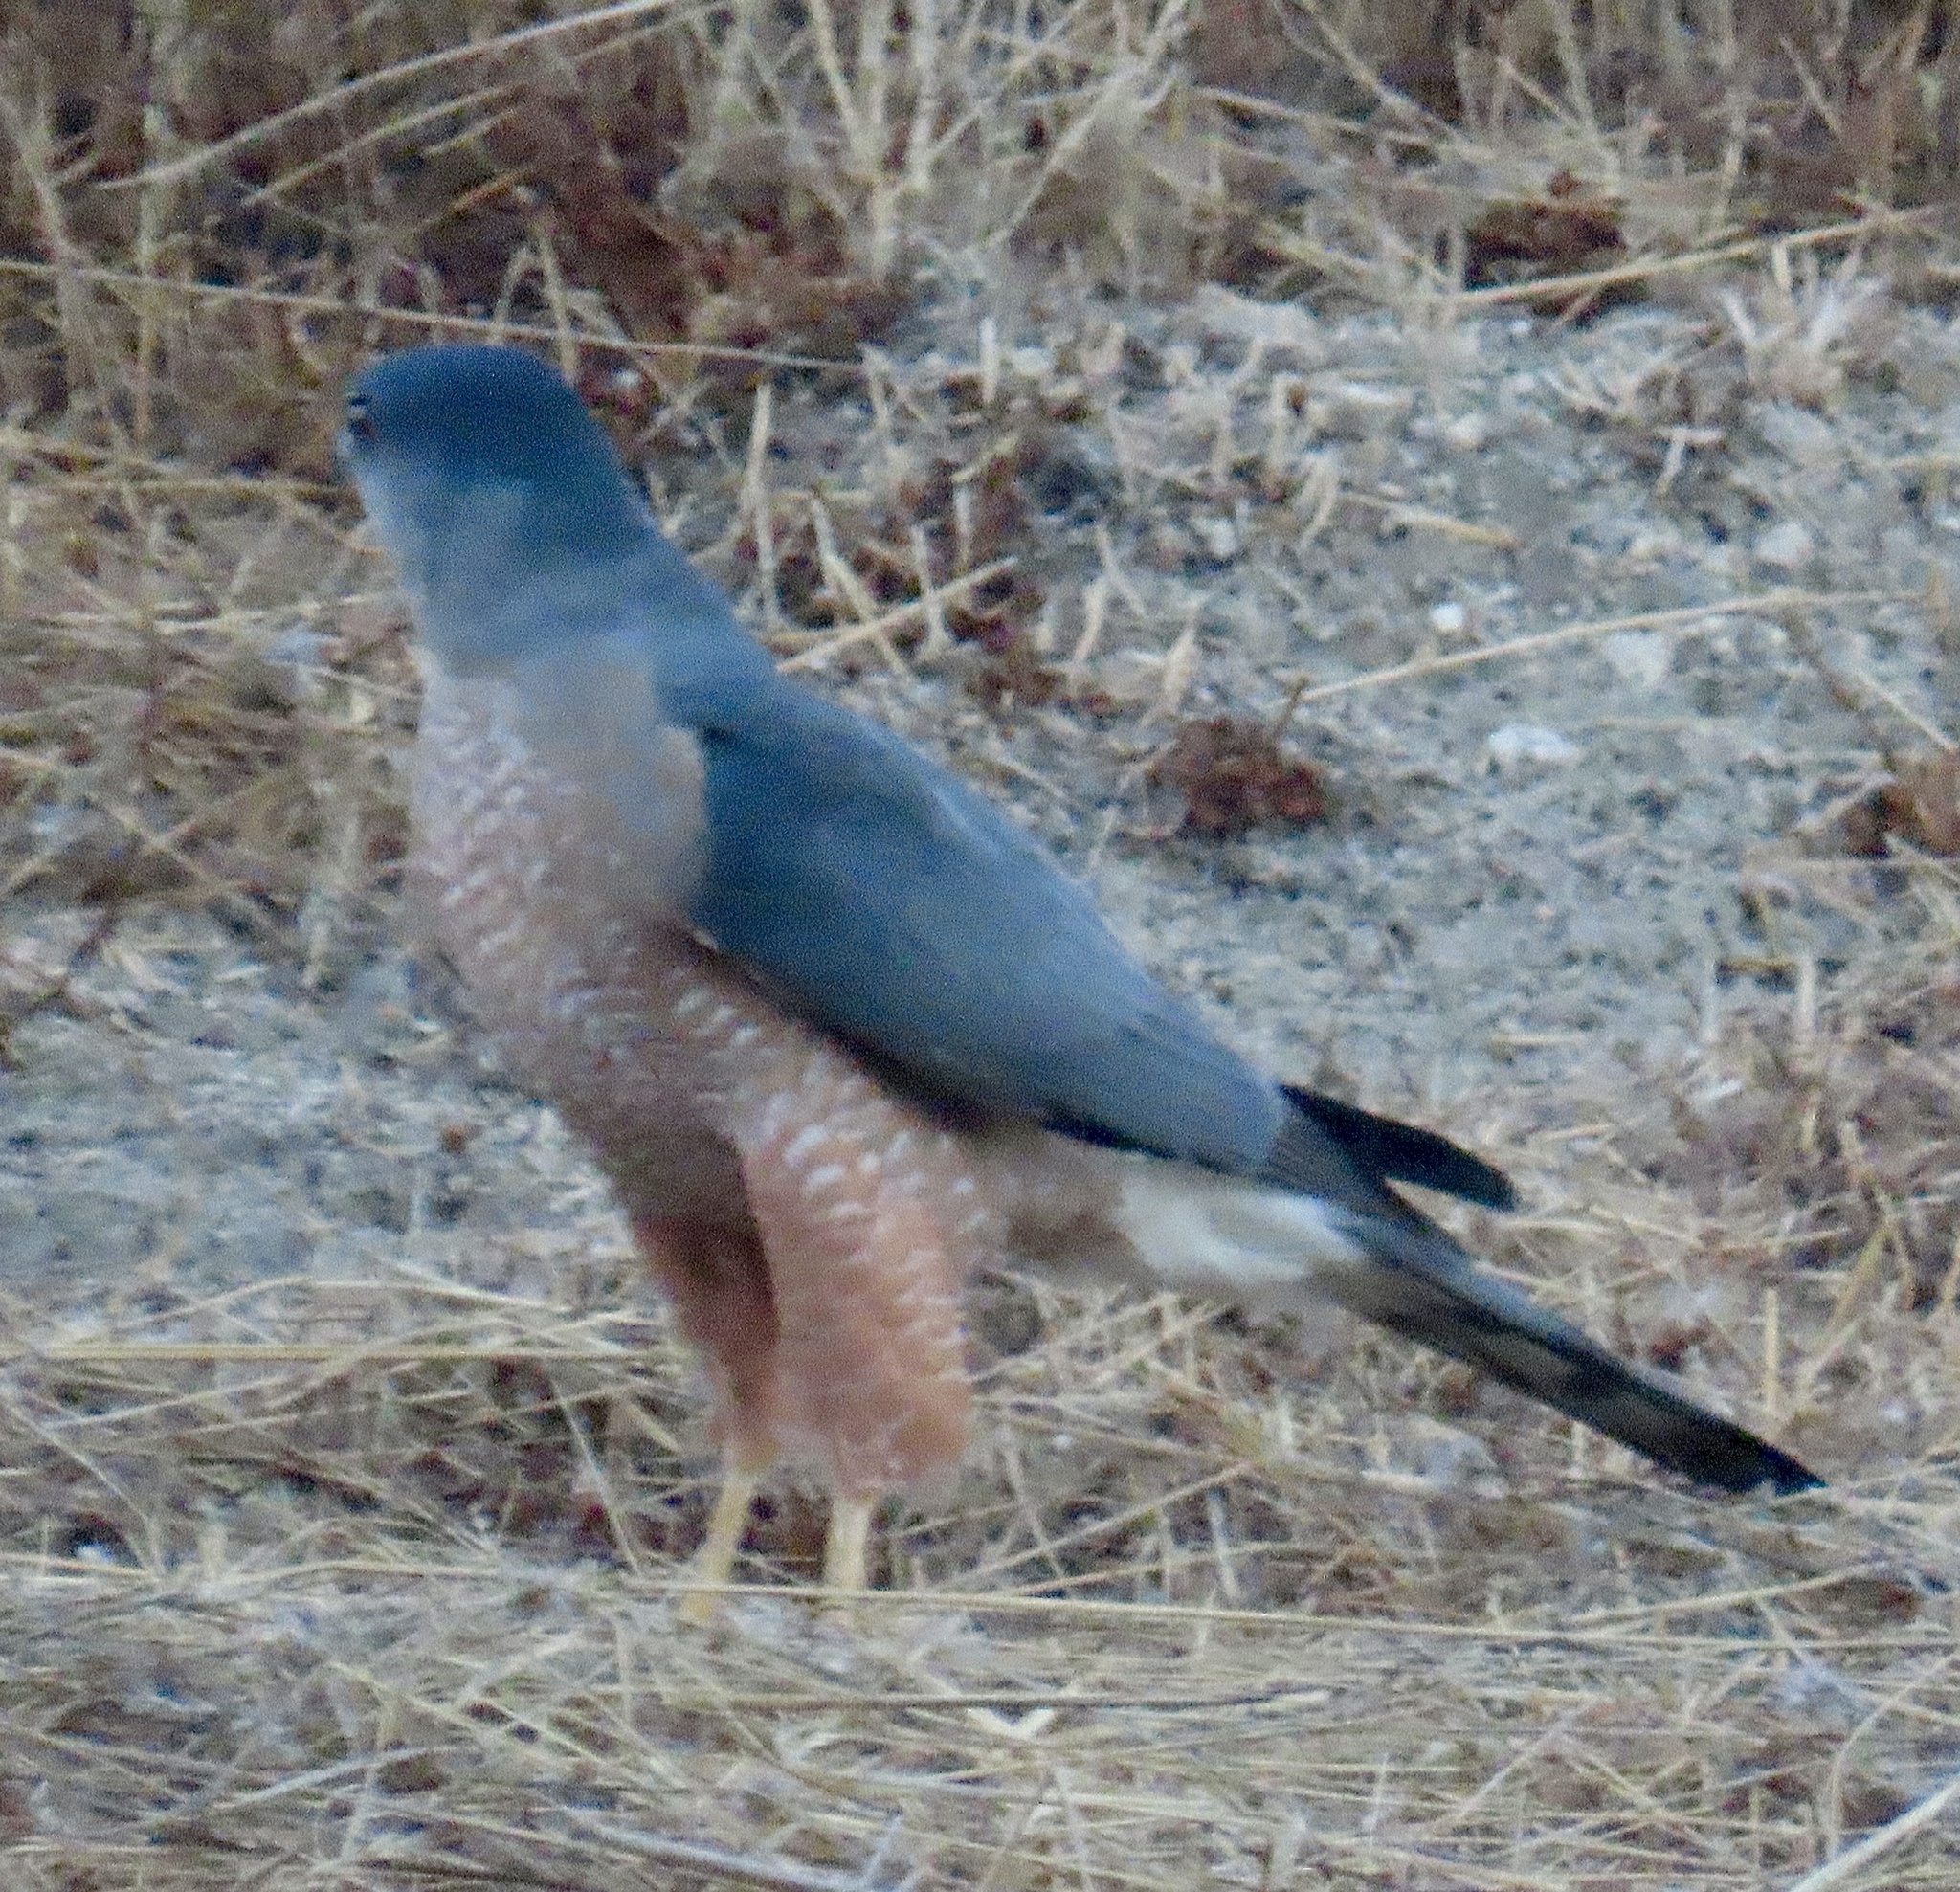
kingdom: Animalia
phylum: Chordata
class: Aves
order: Accipitriformes
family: Accipitridae
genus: Accipiter
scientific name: Accipiter cooperii
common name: Cooper's hawk
